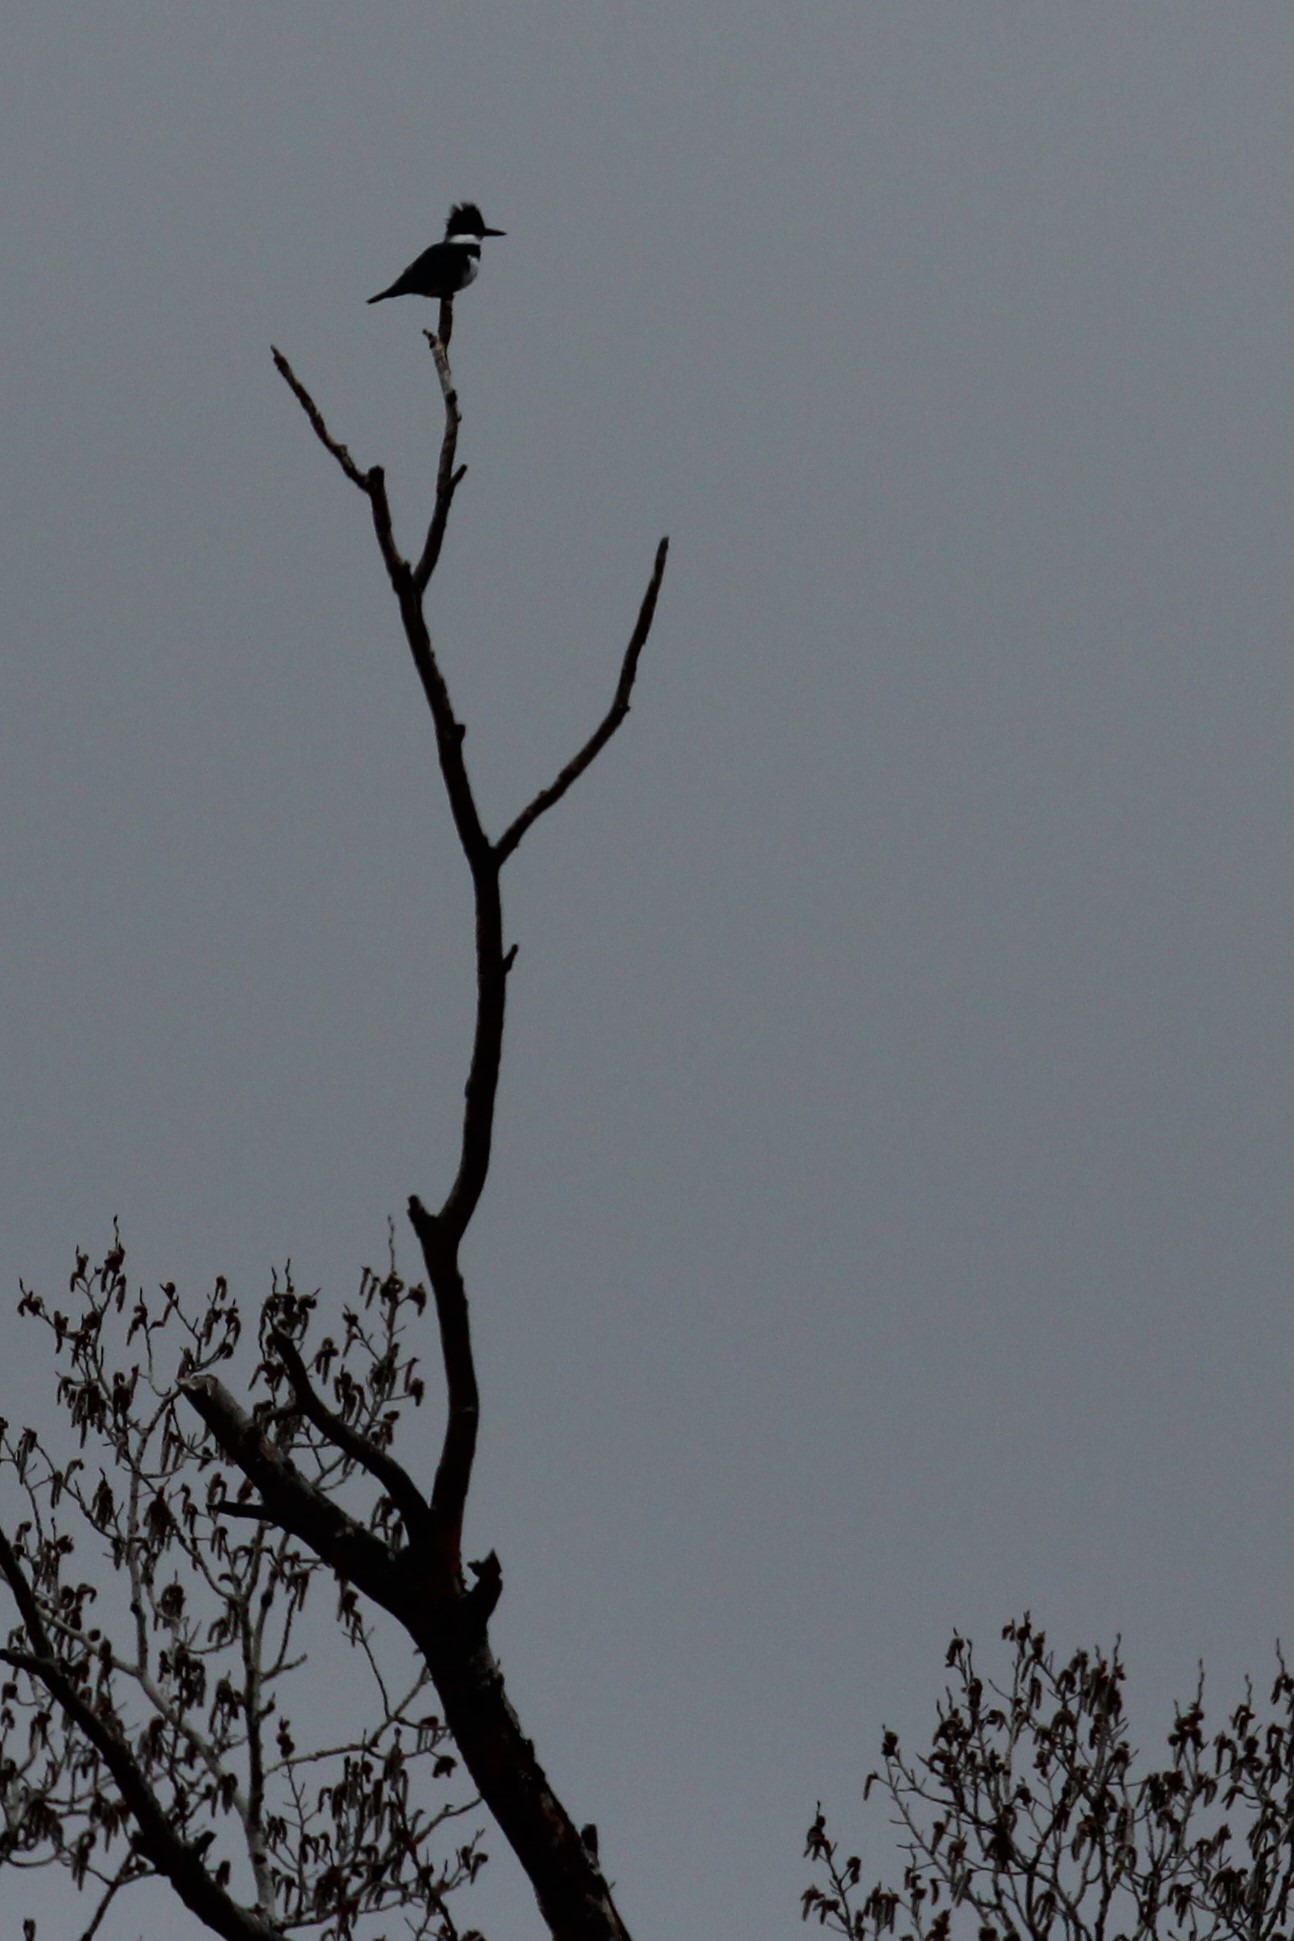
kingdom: Animalia
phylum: Chordata
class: Aves
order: Coraciiformes
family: Alcedinidae
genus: Megaceryle
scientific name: Megaceryle alcyon
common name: Belted kingfisher
